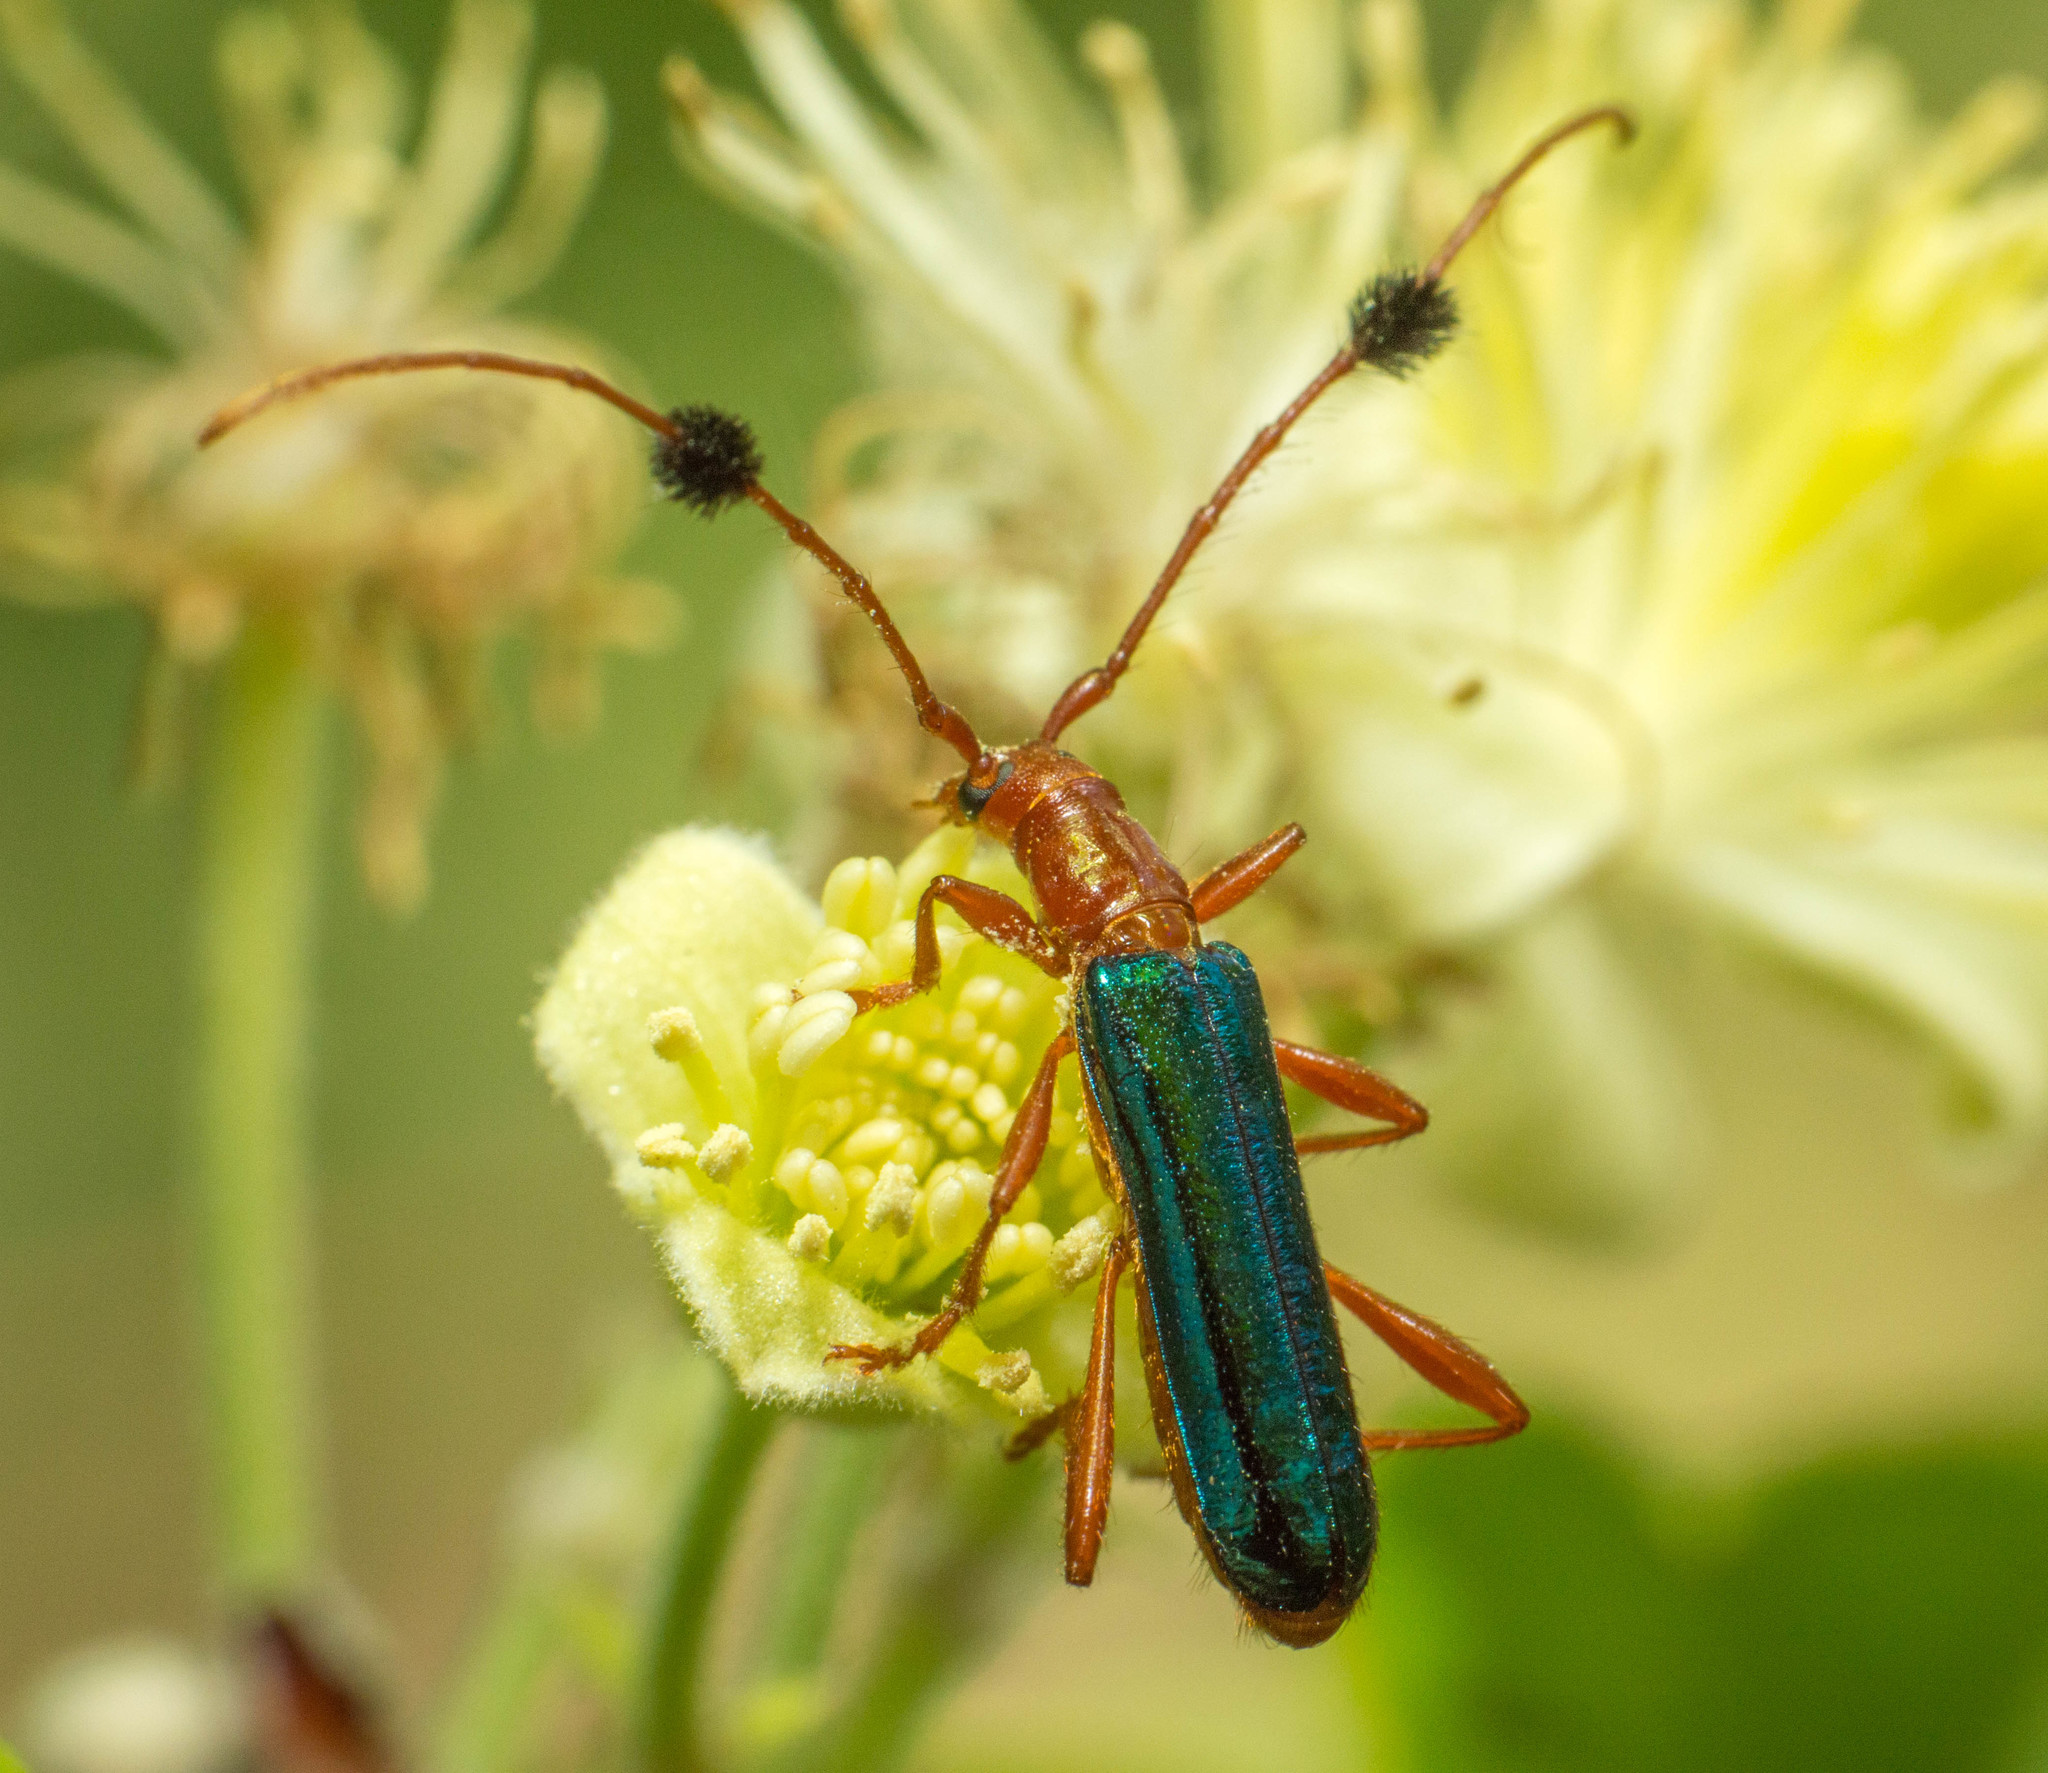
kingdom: Animalia
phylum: Arthropoda
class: Insecta
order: Coleoptera
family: Cerambycidae
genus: Paromoeocerus
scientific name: Paromoeocerus barbicornis
